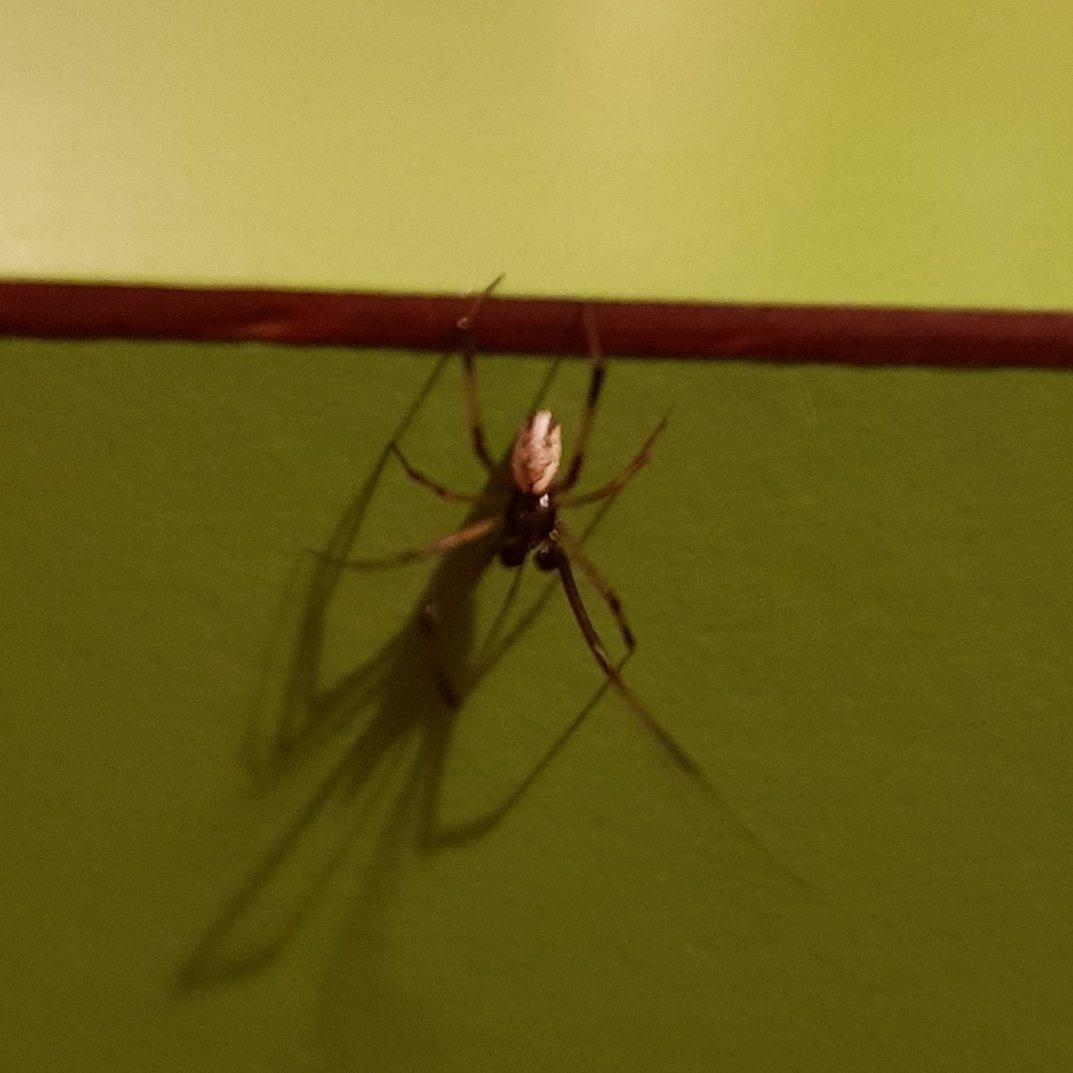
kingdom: Animalia
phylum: Arthropoda
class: Arachnida
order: Araneae
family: Theridiidae
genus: Latrodectus
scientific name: Latrodectus hasselti
